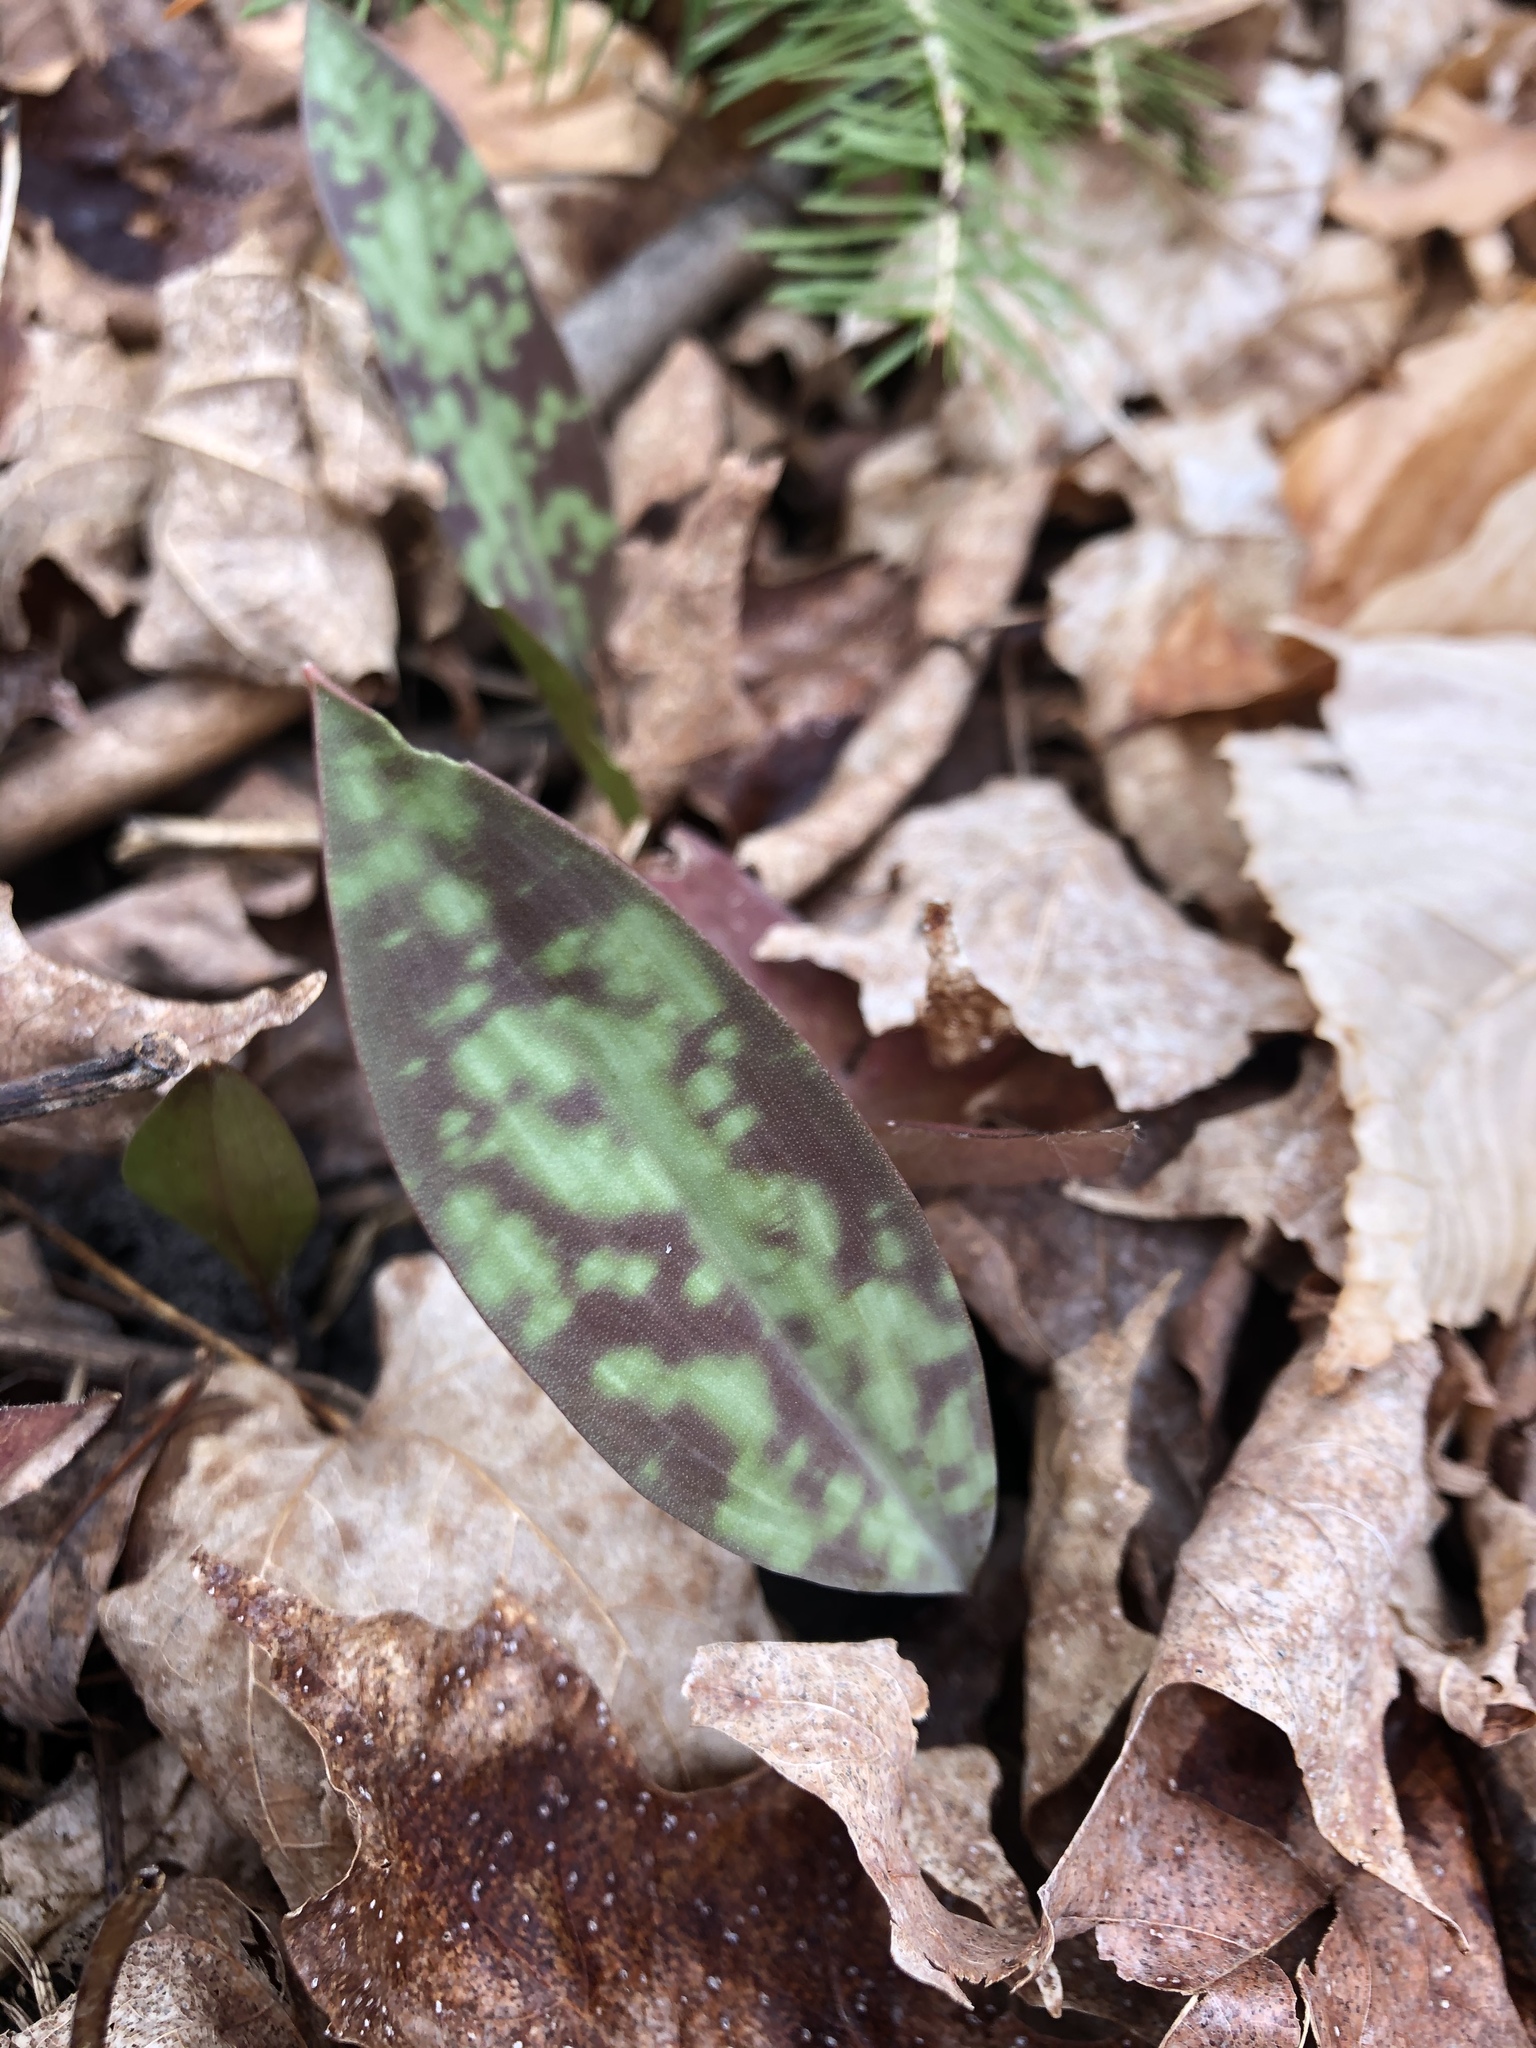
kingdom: Plantae
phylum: Tracheophyta
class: Liliopsida
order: Liliales
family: Liliaceae
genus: Erythronium
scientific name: Erythronium americanum
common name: Yellow adder's-tongue
